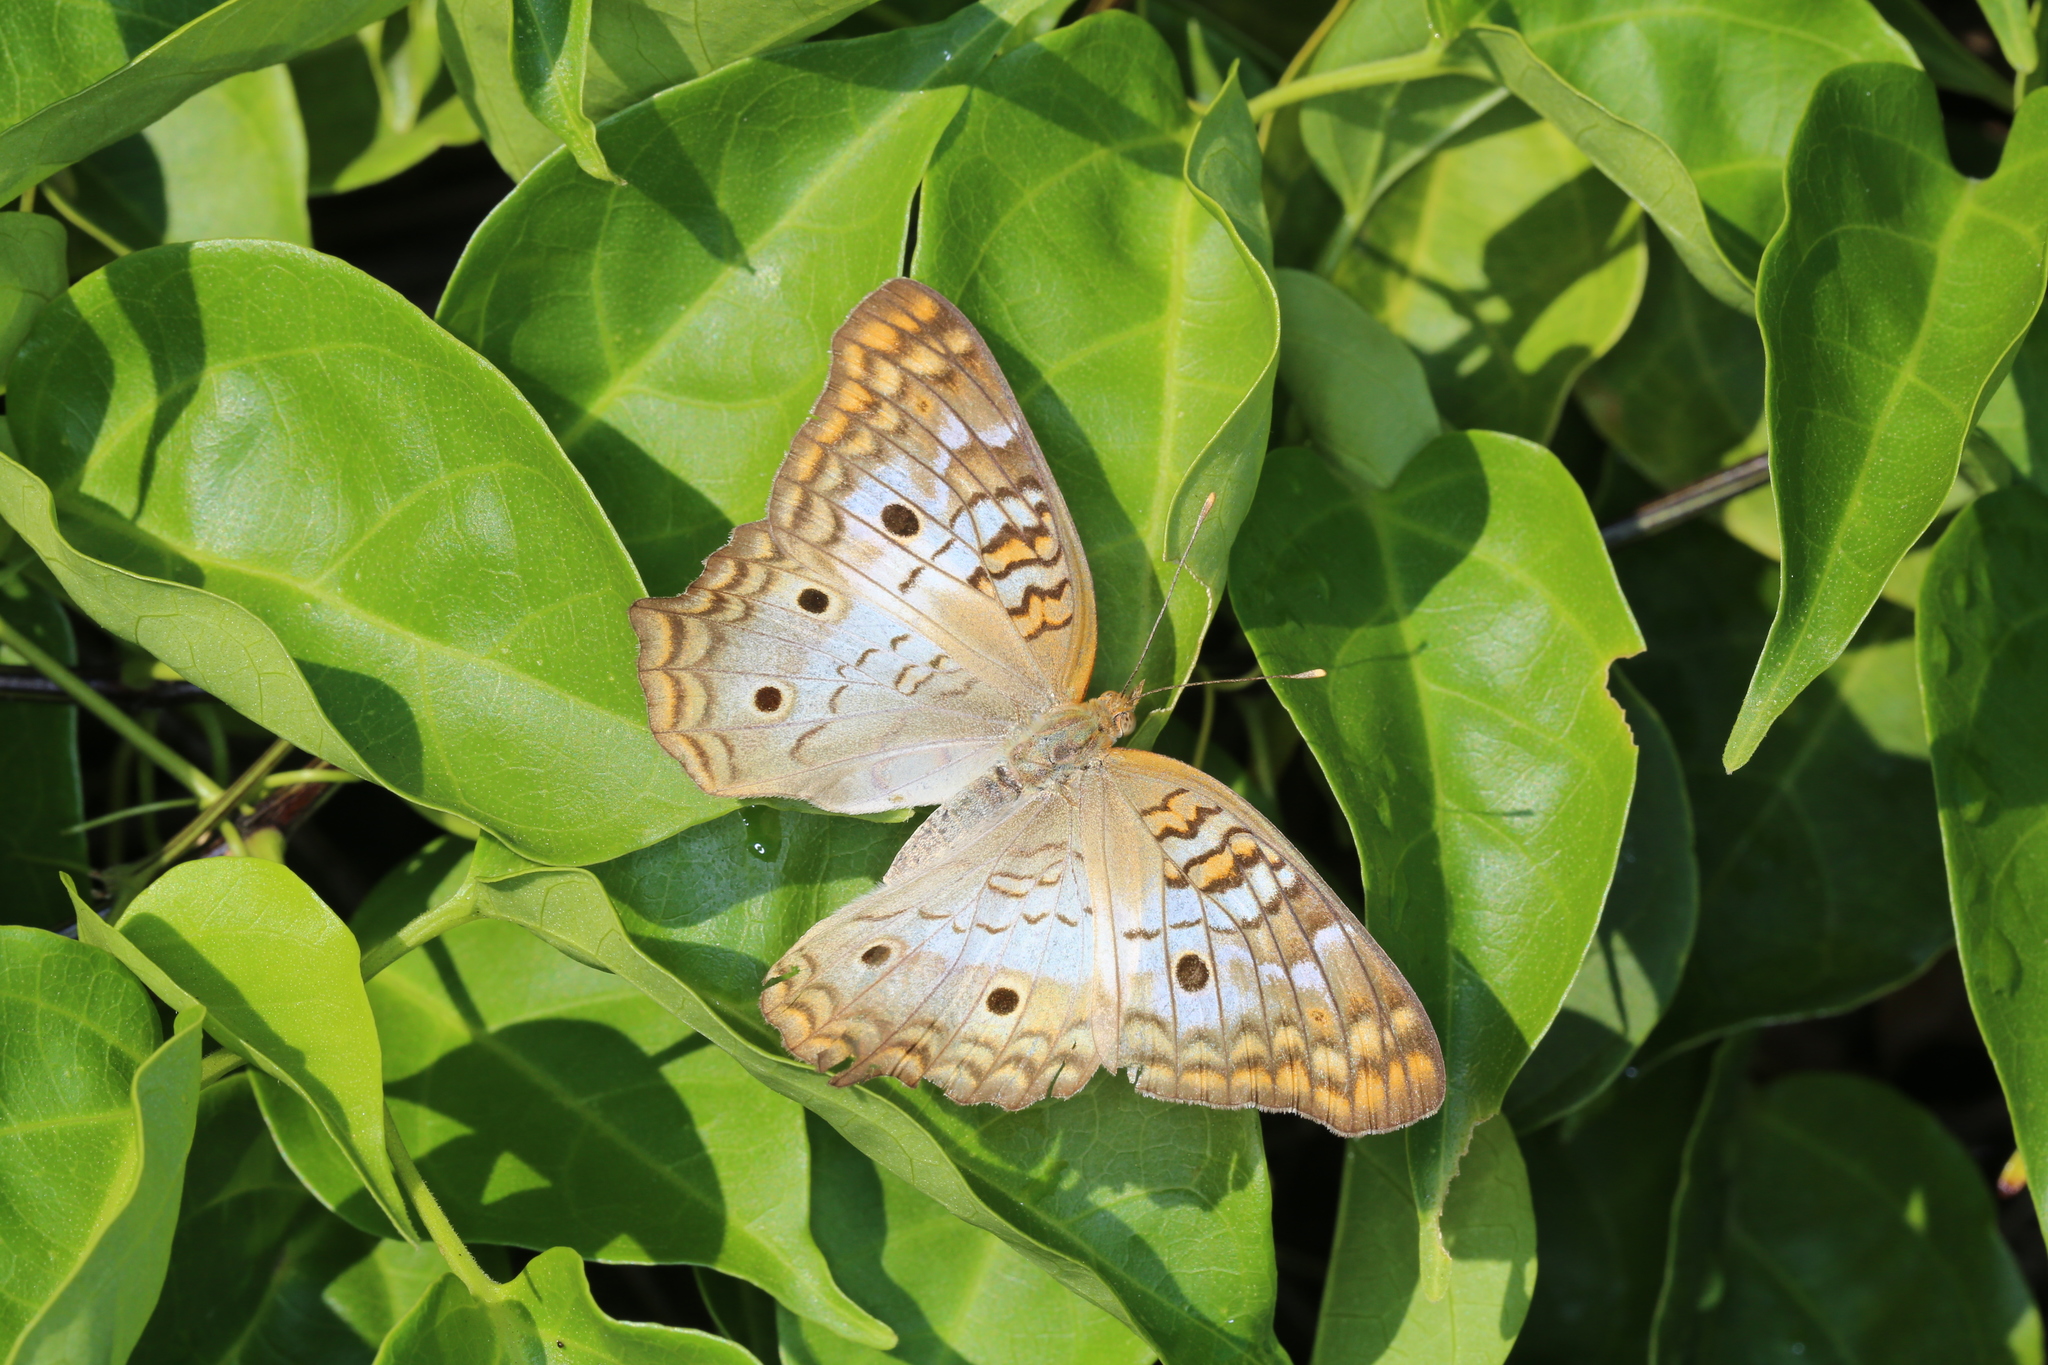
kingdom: Animalia
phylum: Arthropoda
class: Insecta
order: Lepidoptera
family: Nymphalidae
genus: Anartia
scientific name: Anartia jatrophae
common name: White peacock
